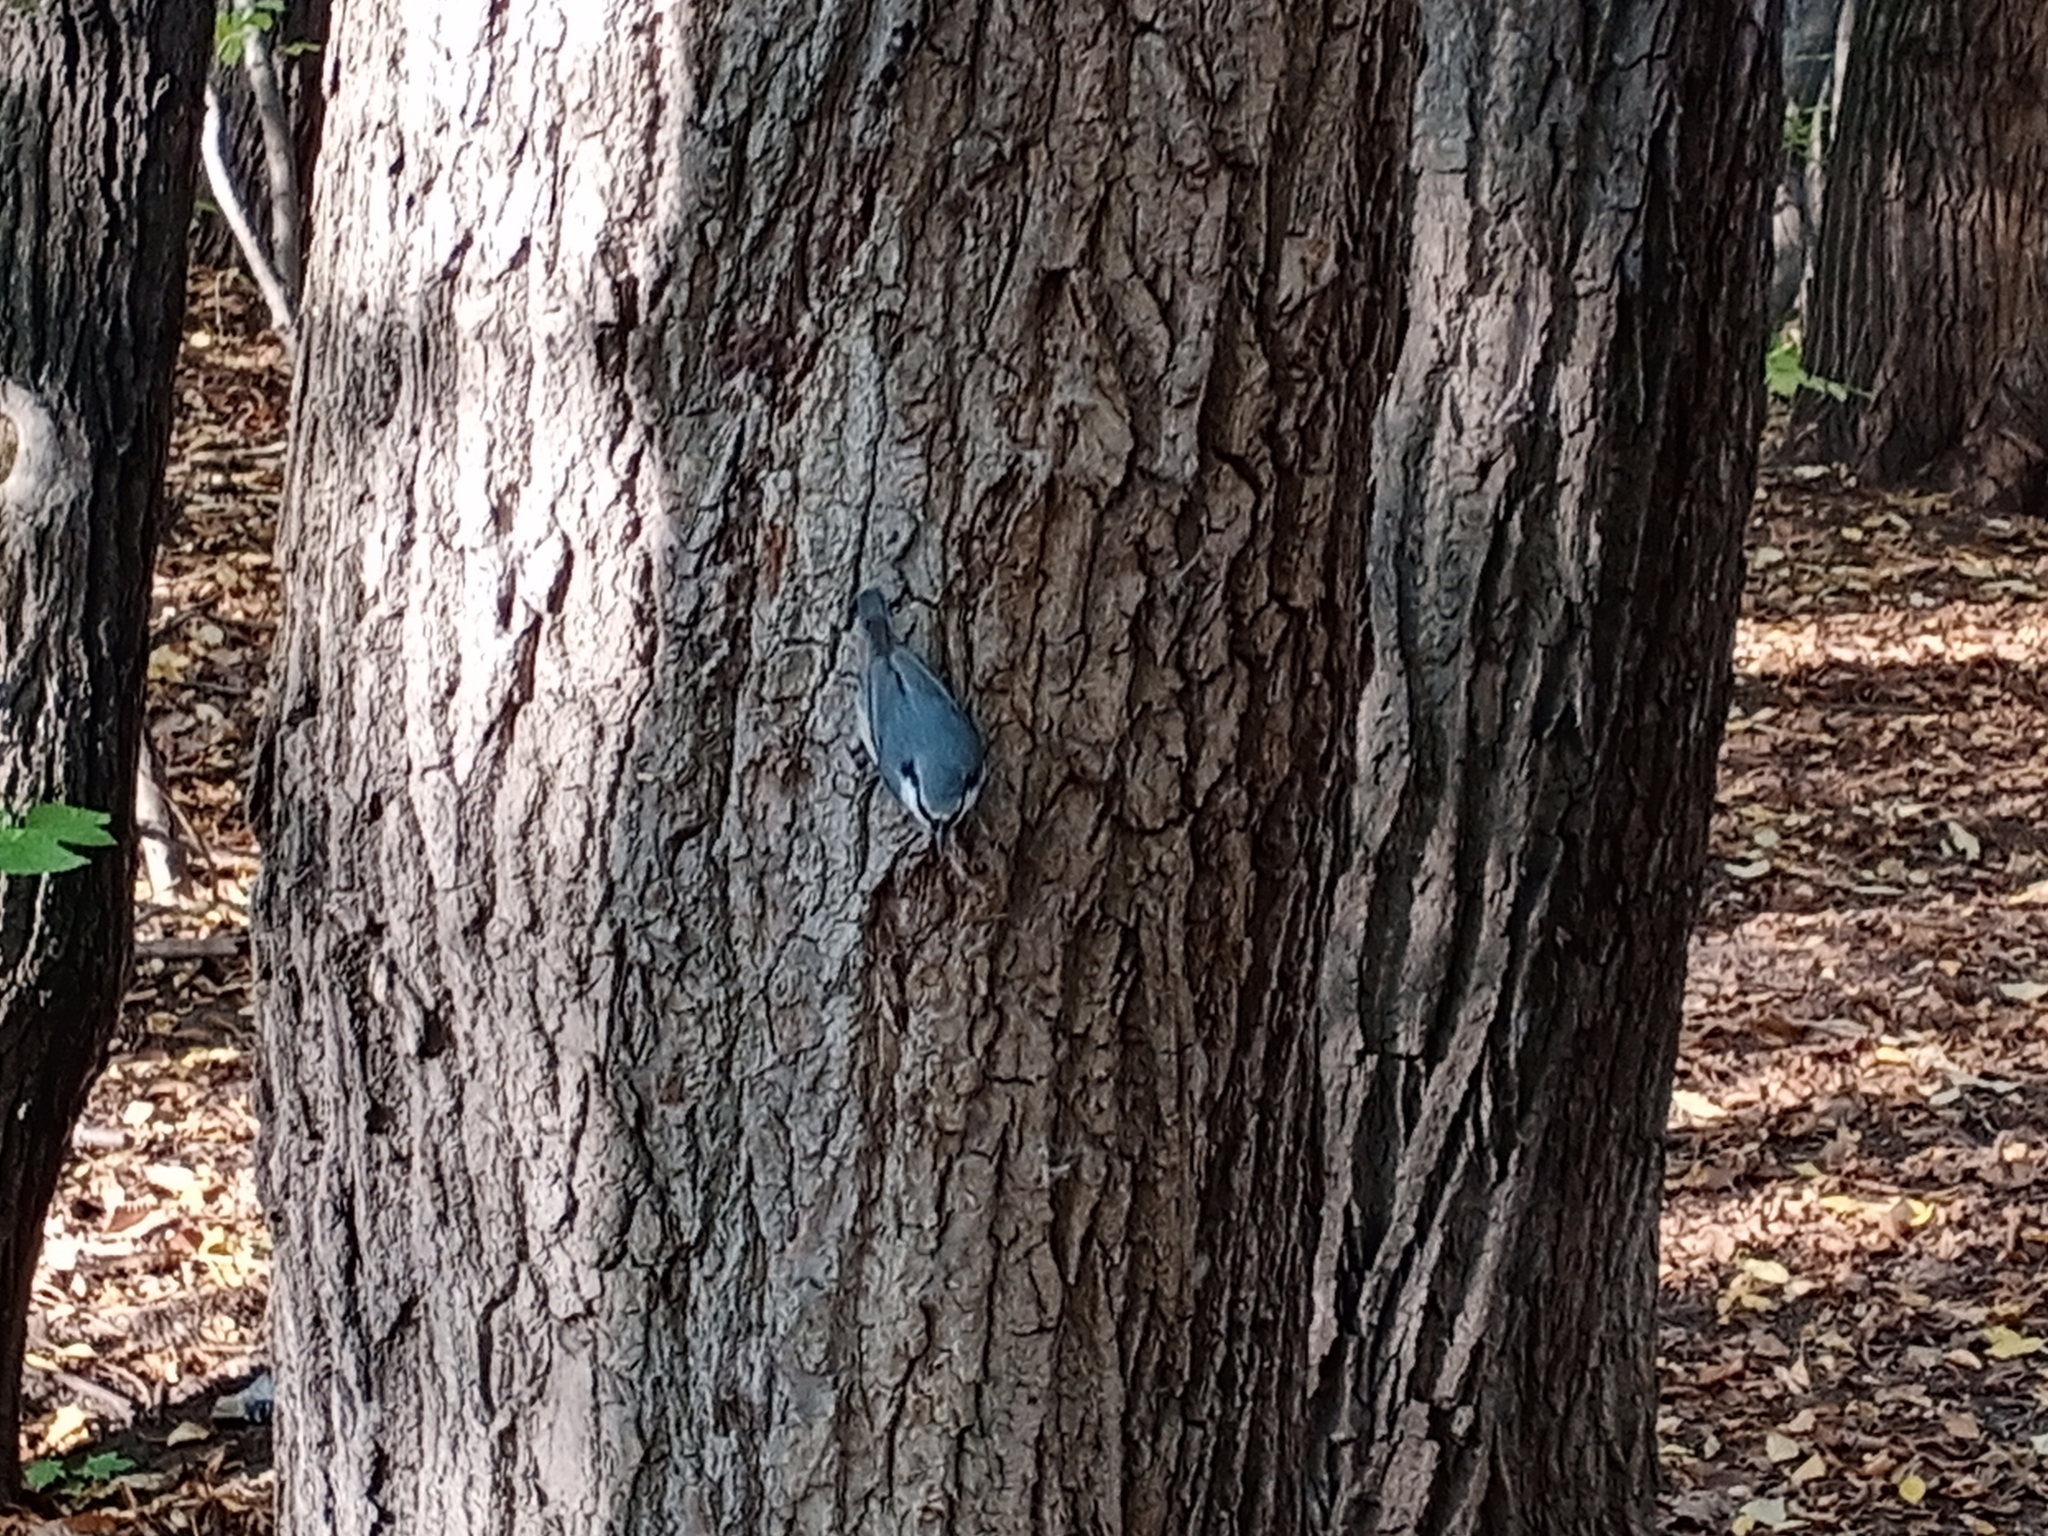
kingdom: Animalia
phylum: Chordata
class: Aves
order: Passeriformes
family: Sittidae
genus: Sitta
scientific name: Sitta europaea
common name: Eurasian nuthatch
